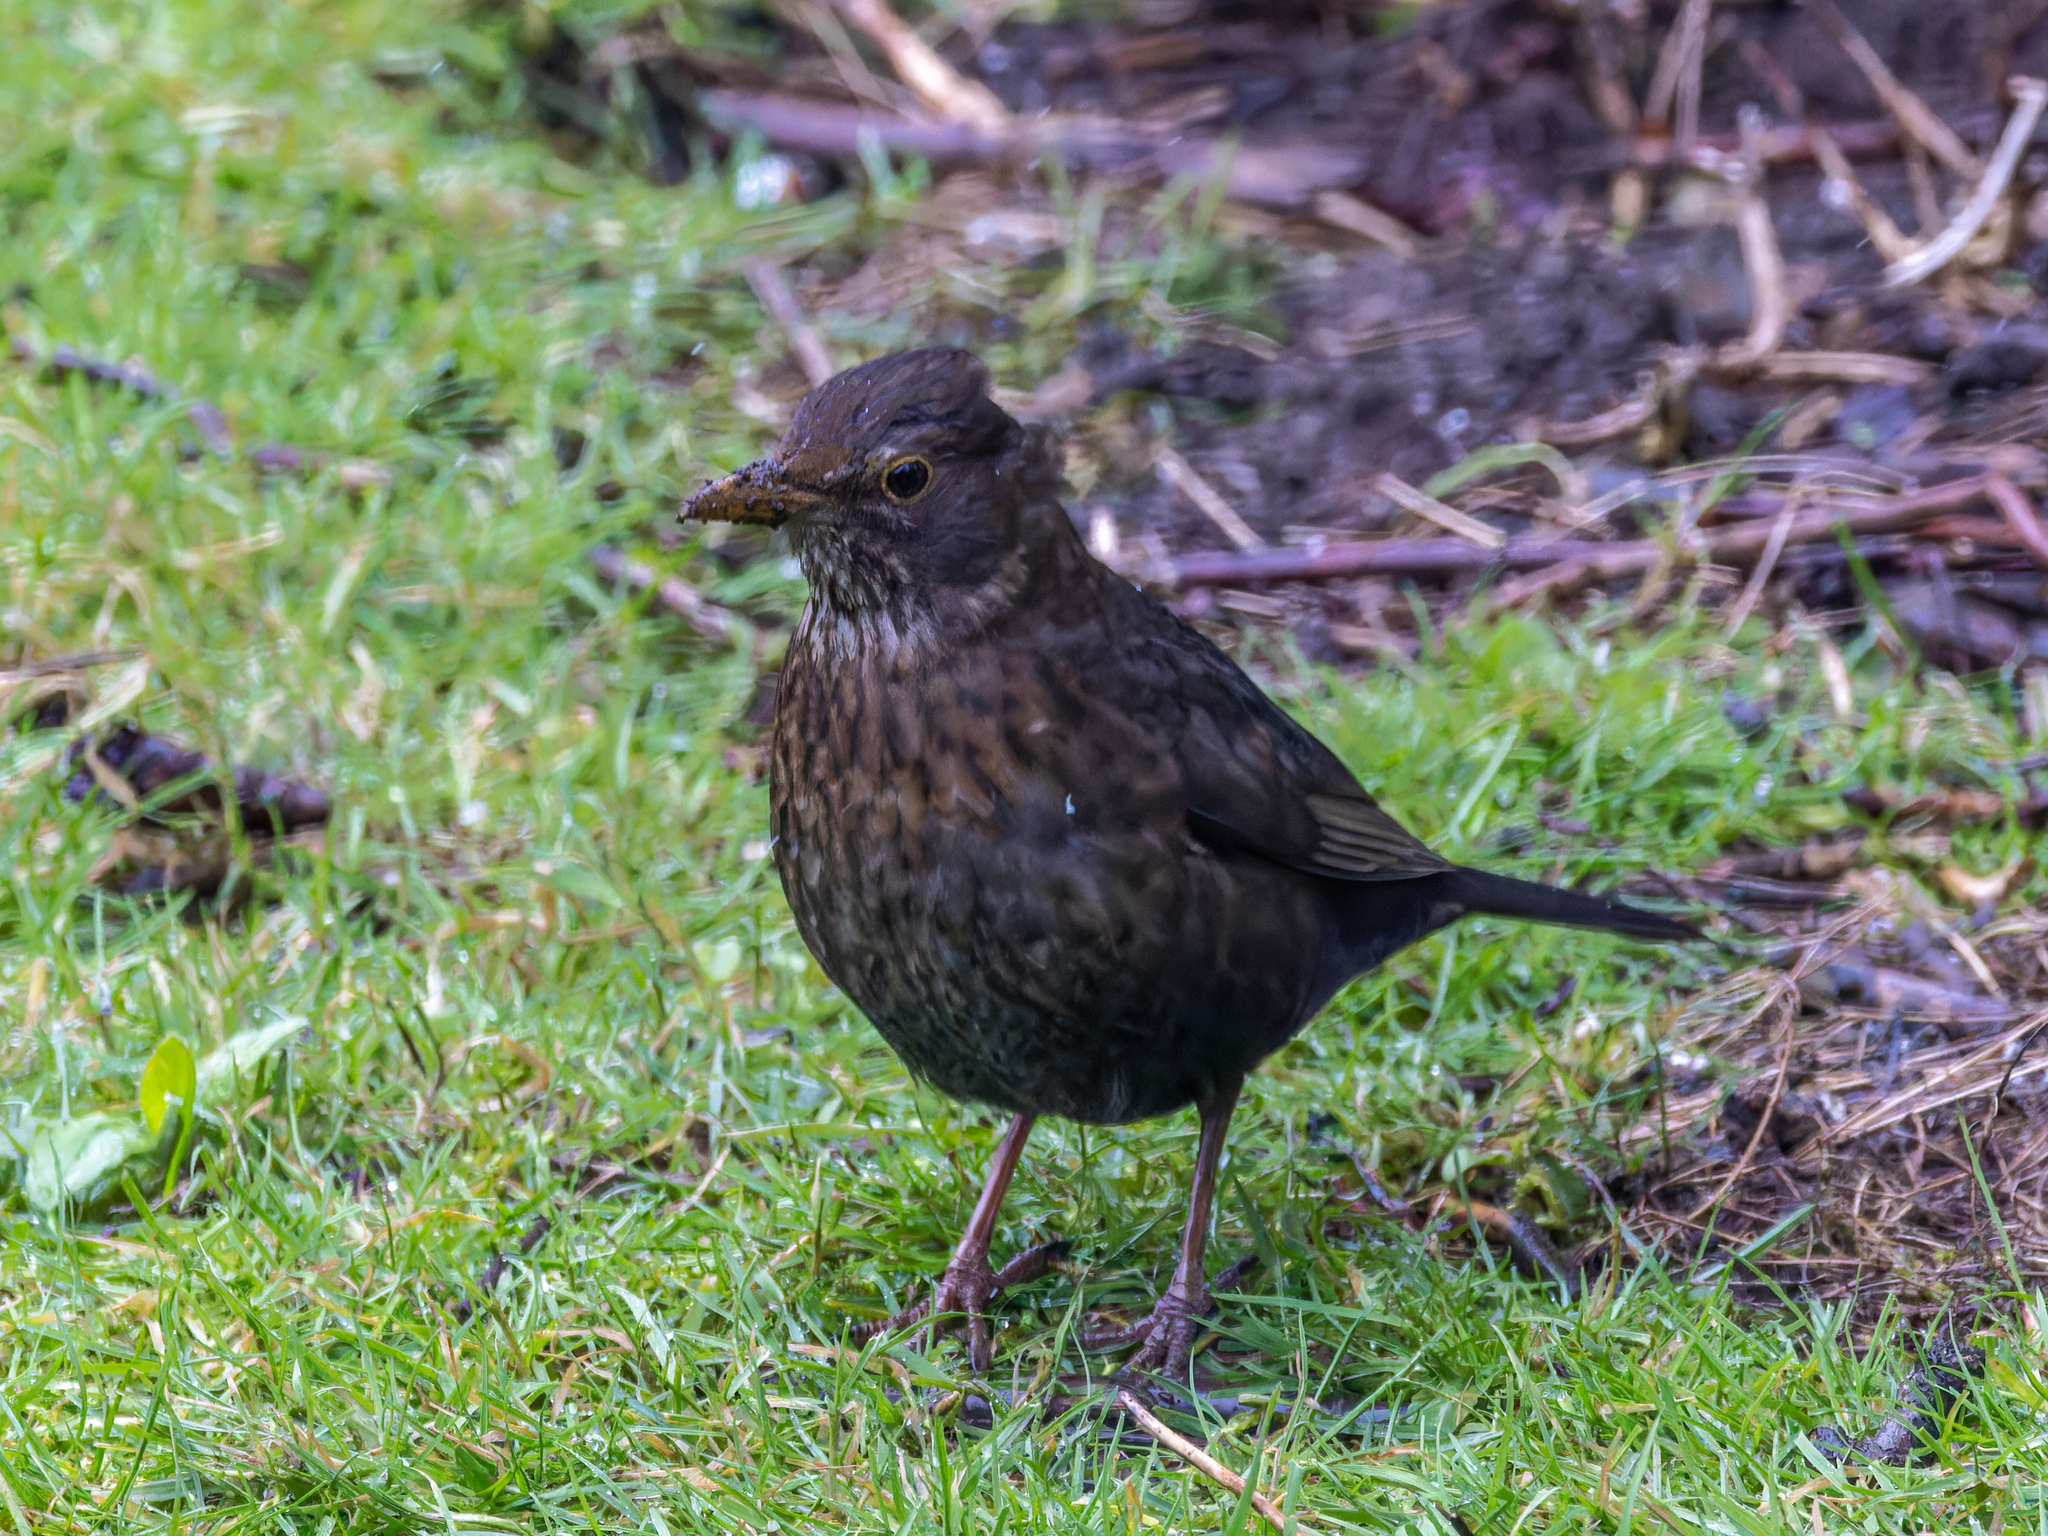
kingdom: Animalia
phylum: Chordata
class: Aves
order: Passeriformes
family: Turdidae
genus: Turdus
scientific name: Turdus merula
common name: Common blackbird
